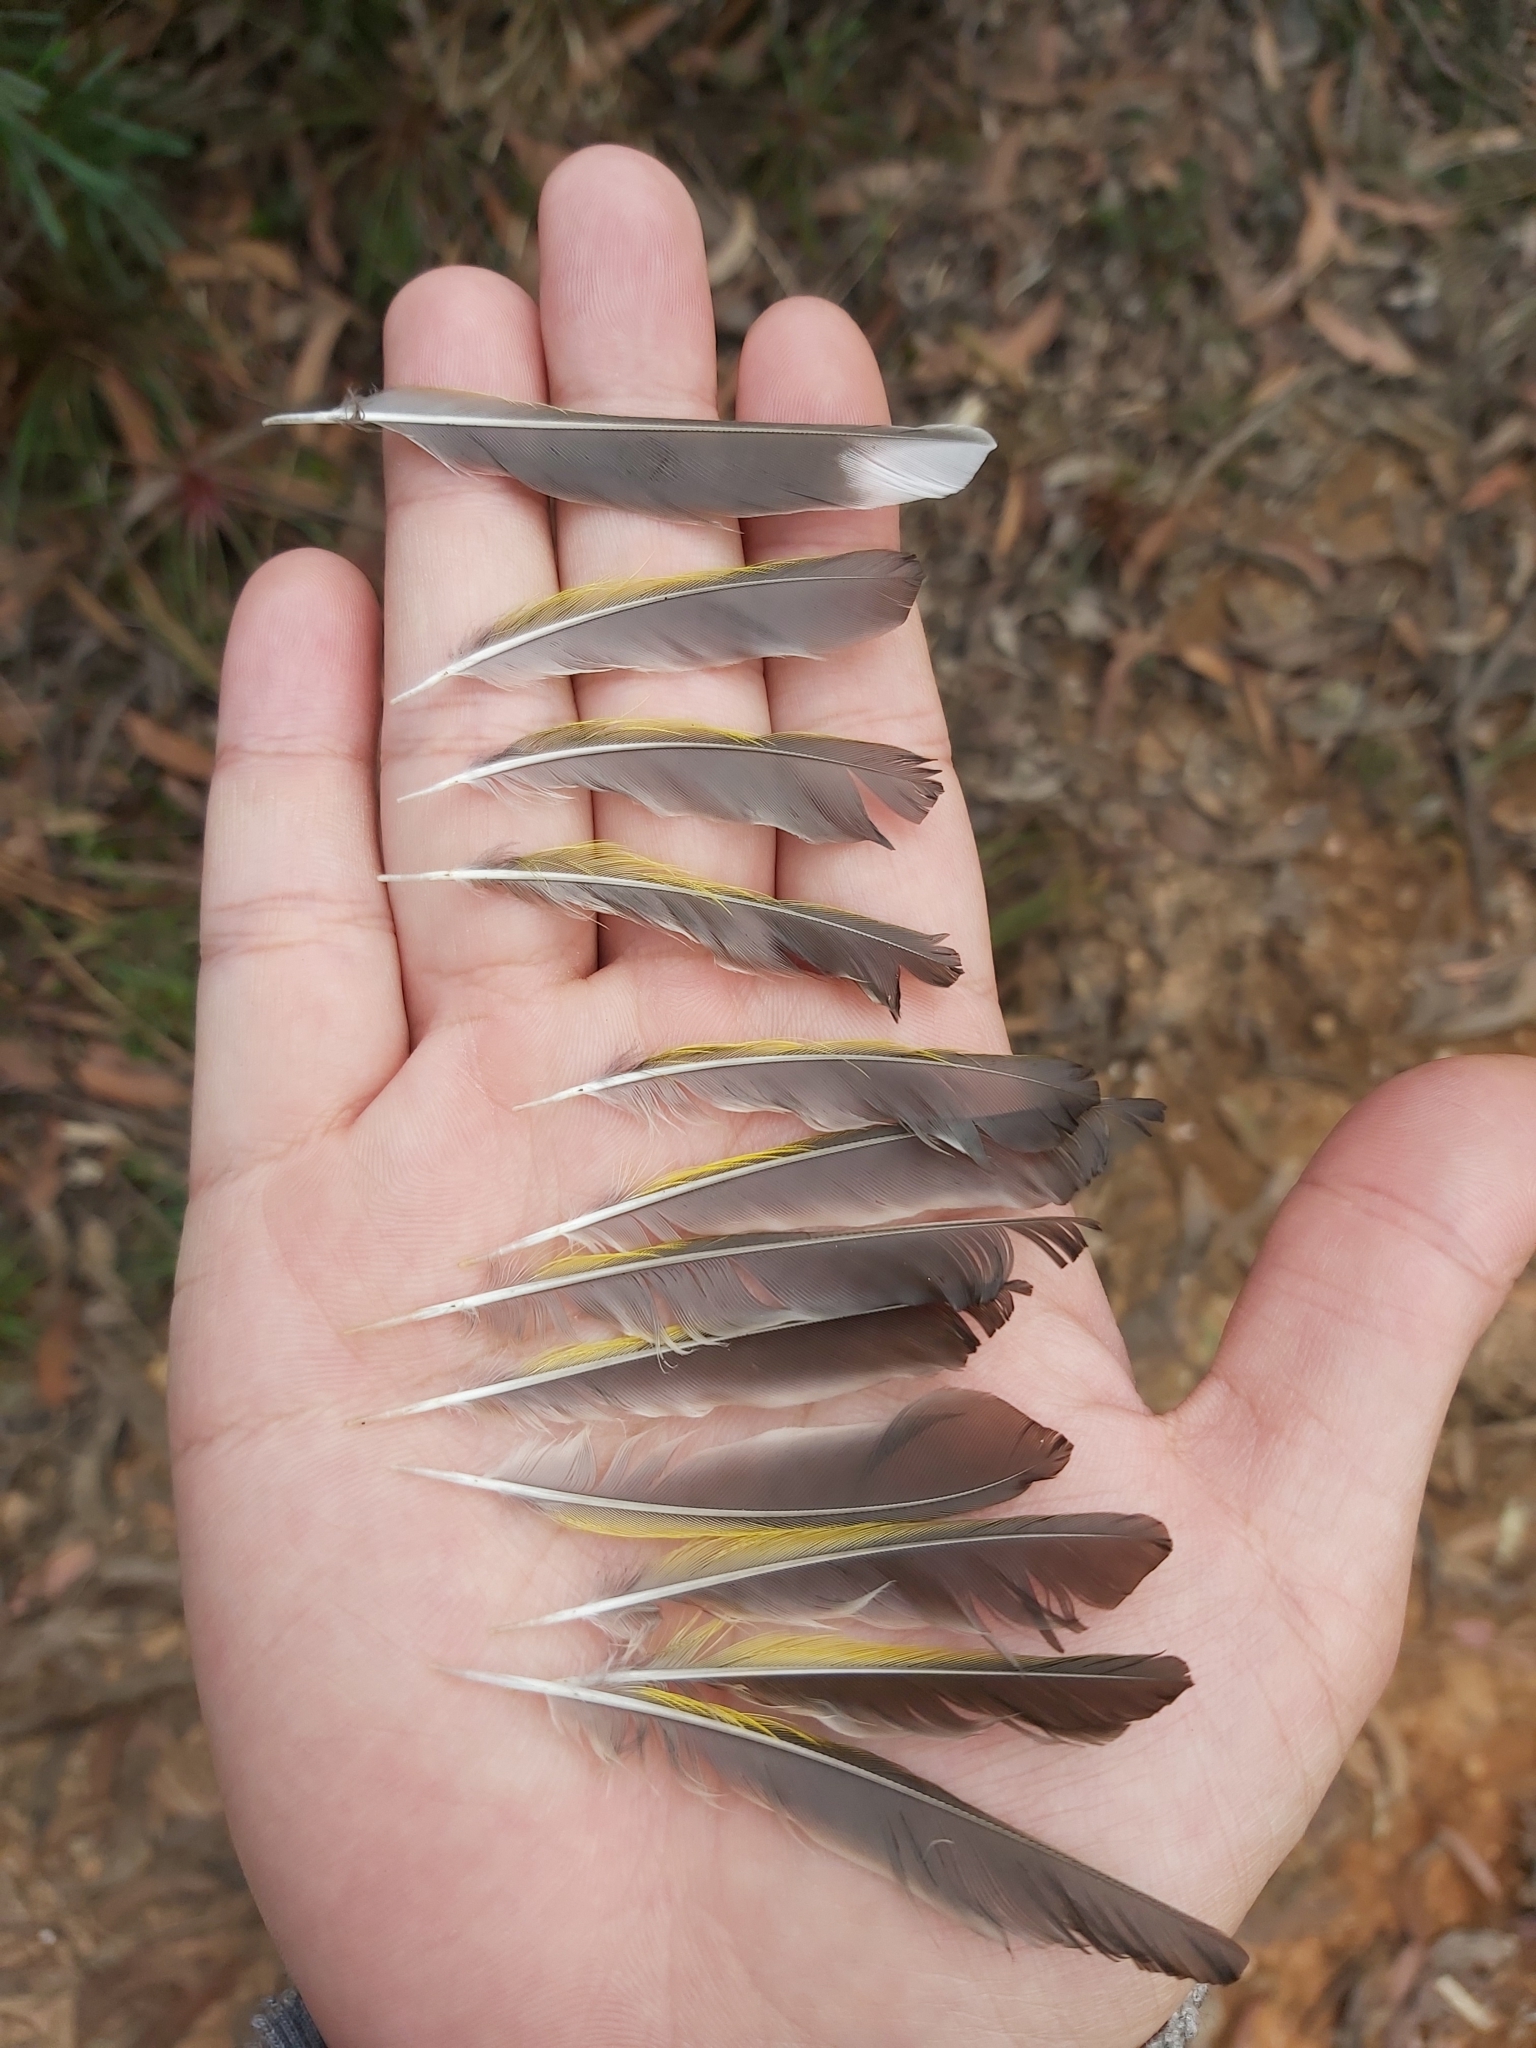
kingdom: Animalia
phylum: Chordata
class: Aves
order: Passeriformes
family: Meliphagidae
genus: Phylidonyris
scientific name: Phylidonyris novaehollandiae
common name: New holland honeyeater
